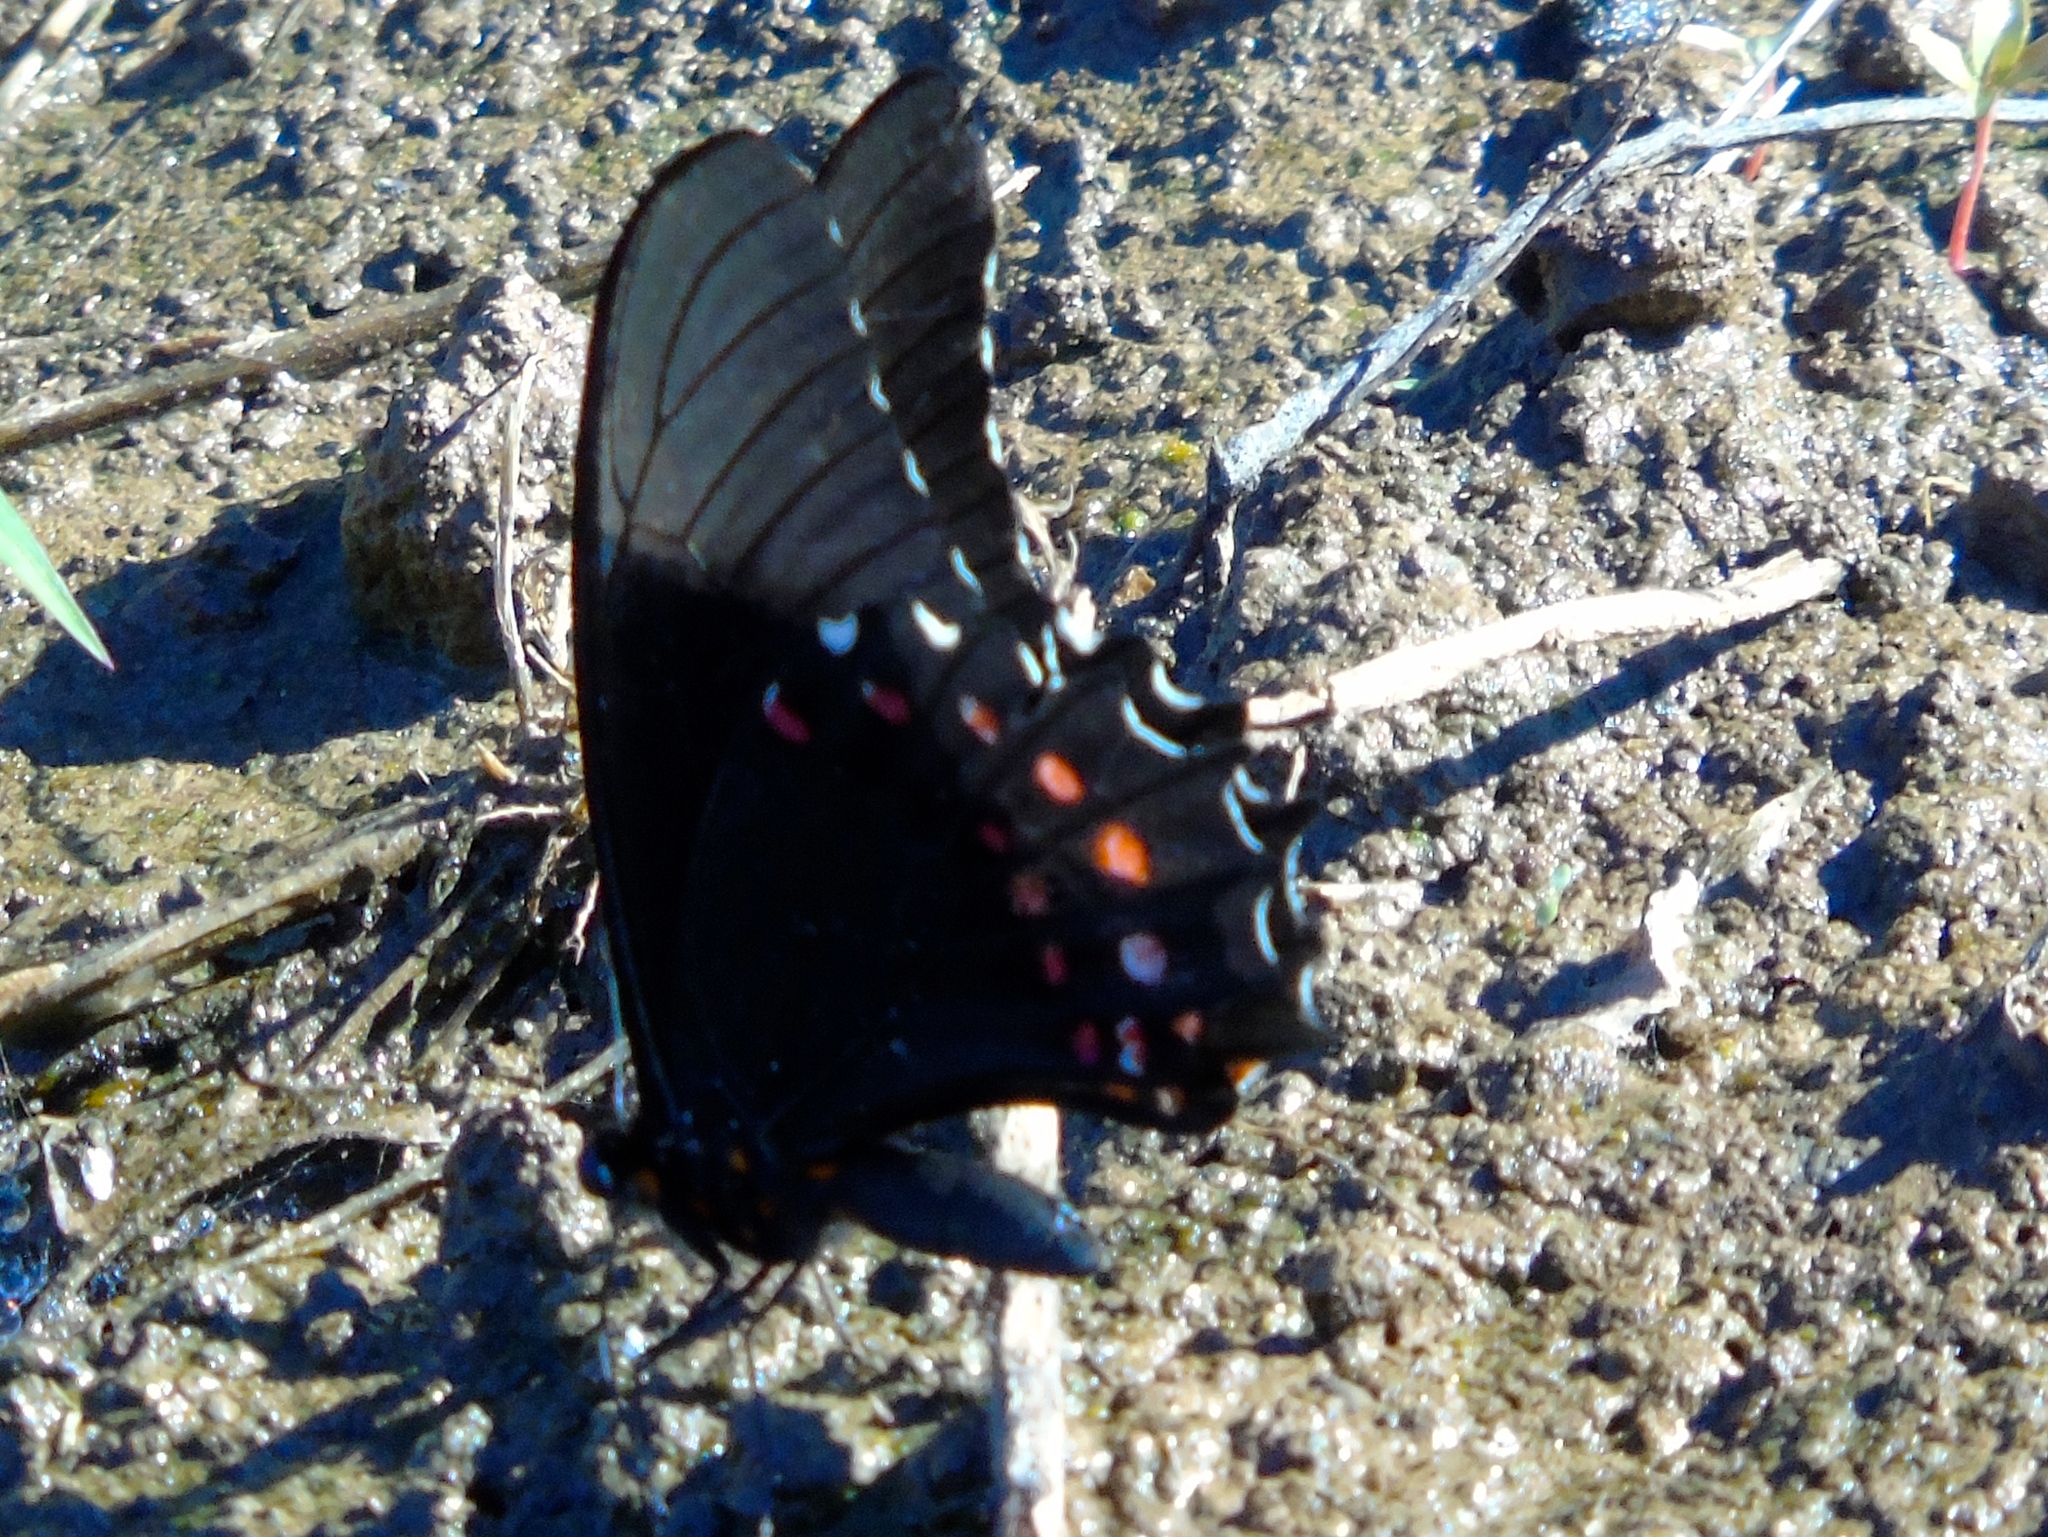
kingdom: Animalia
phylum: Arthropoda
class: Insecta
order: Lepidoptera
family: Papilionidae
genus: Heraclides
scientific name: Heraclides rogeri
